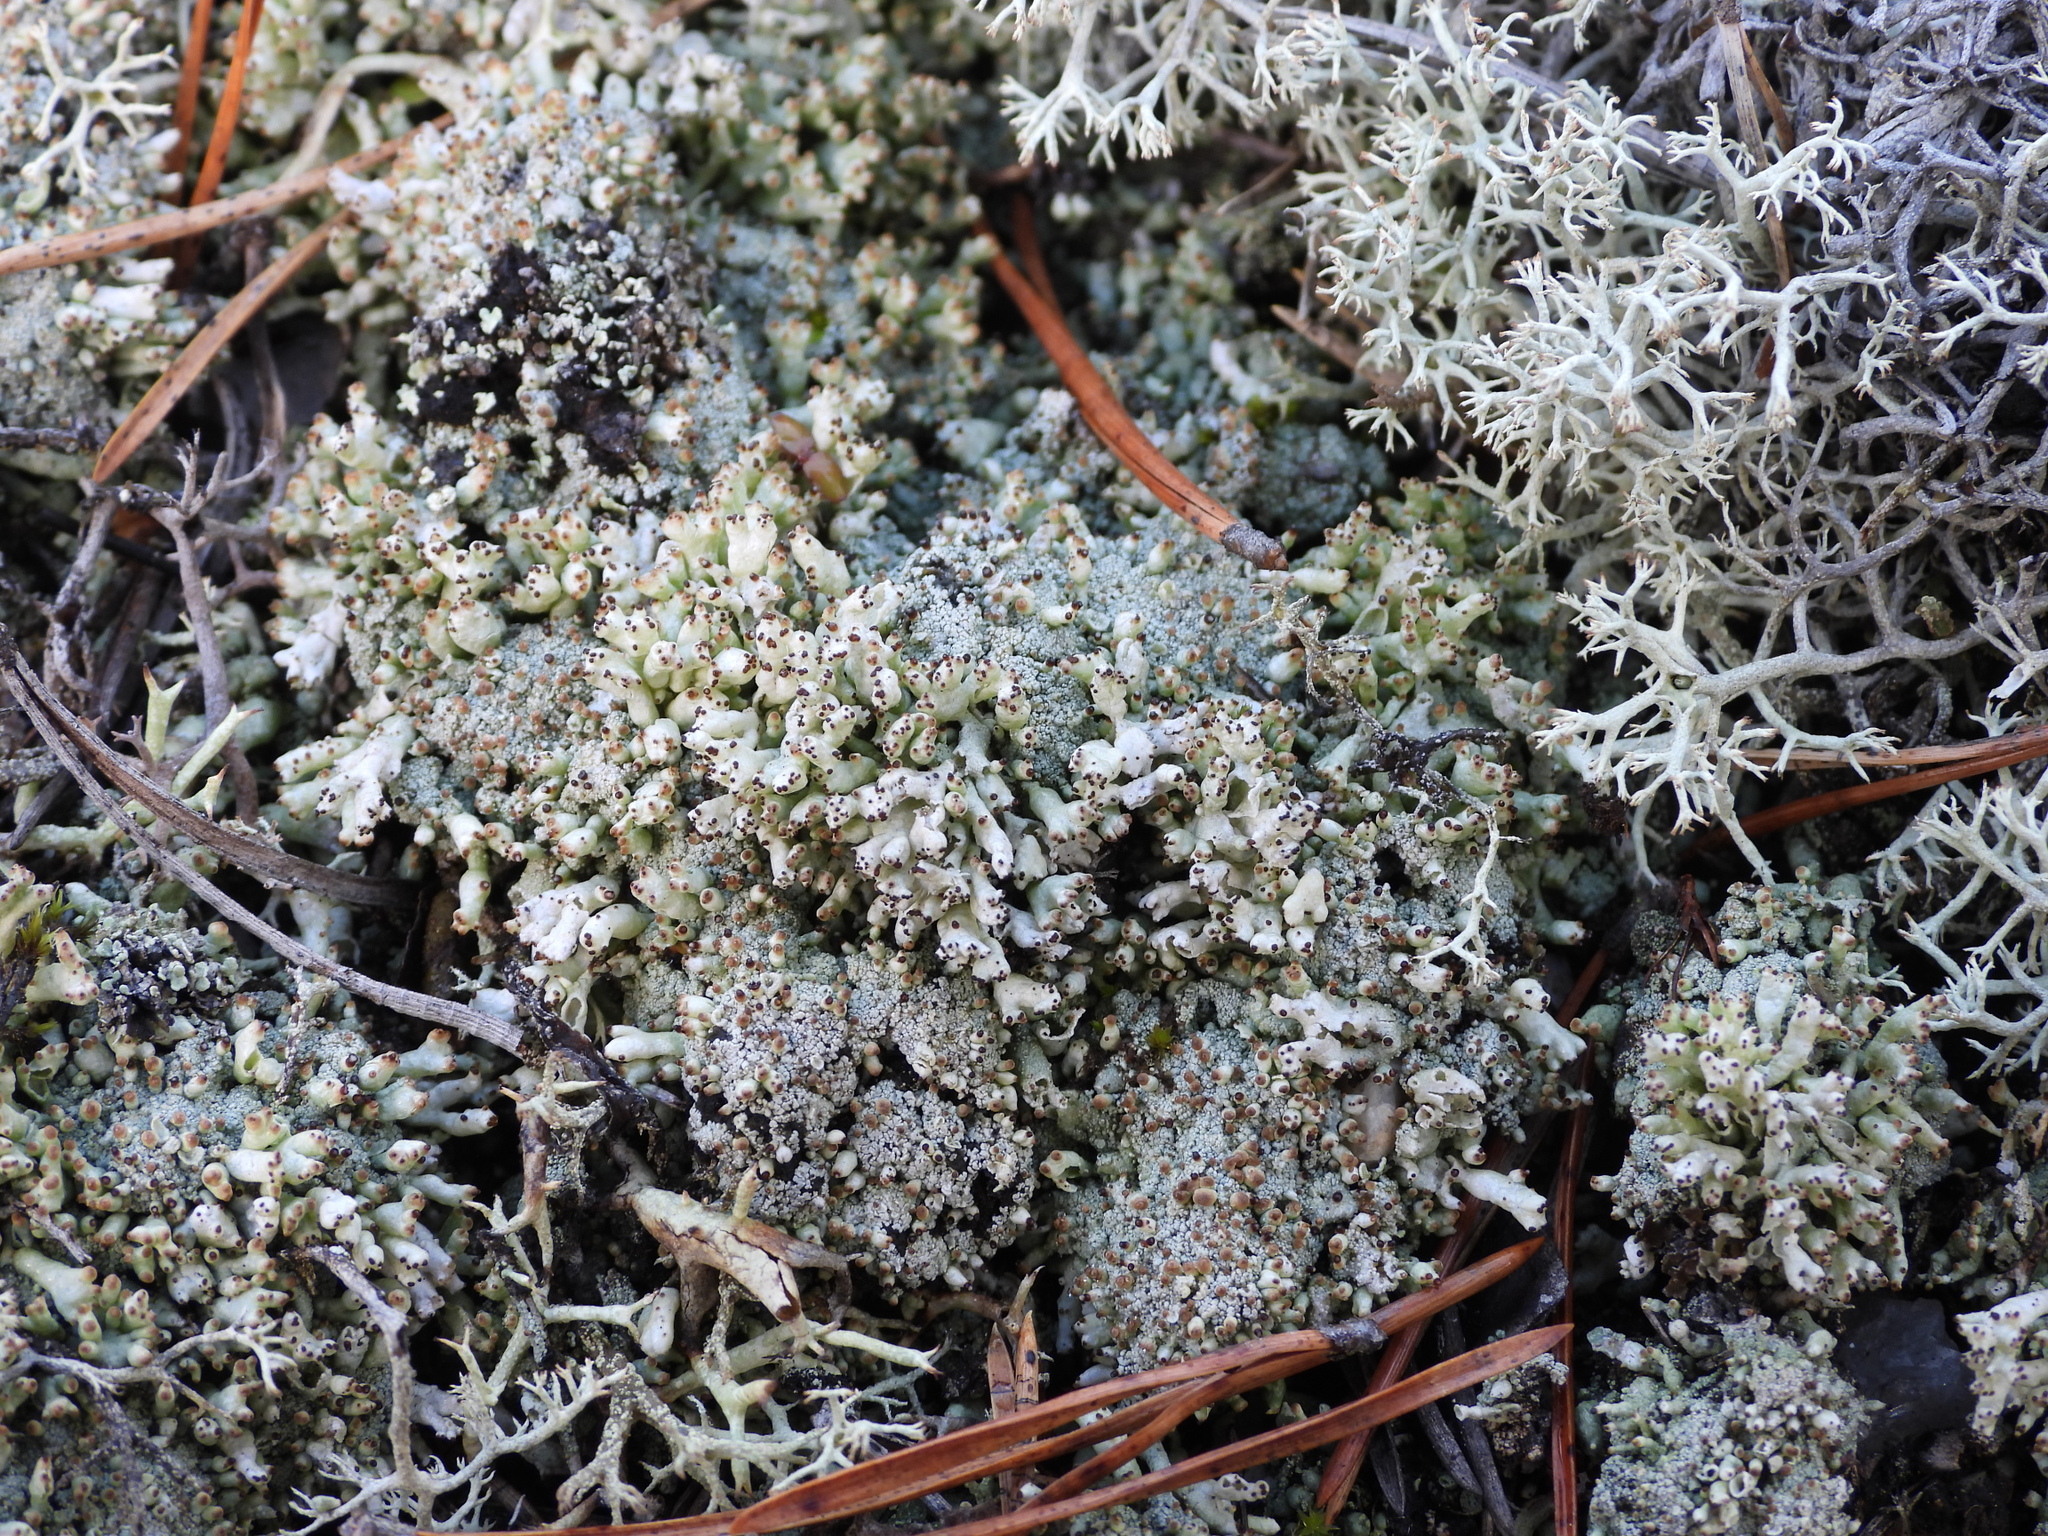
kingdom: Fungi
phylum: Ascomycota
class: Lecanoromycetes
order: Lecanorales
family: Cladoniaceae
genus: Pycnothelia
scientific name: Pycnothelia papillaria
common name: Nipple lichen
